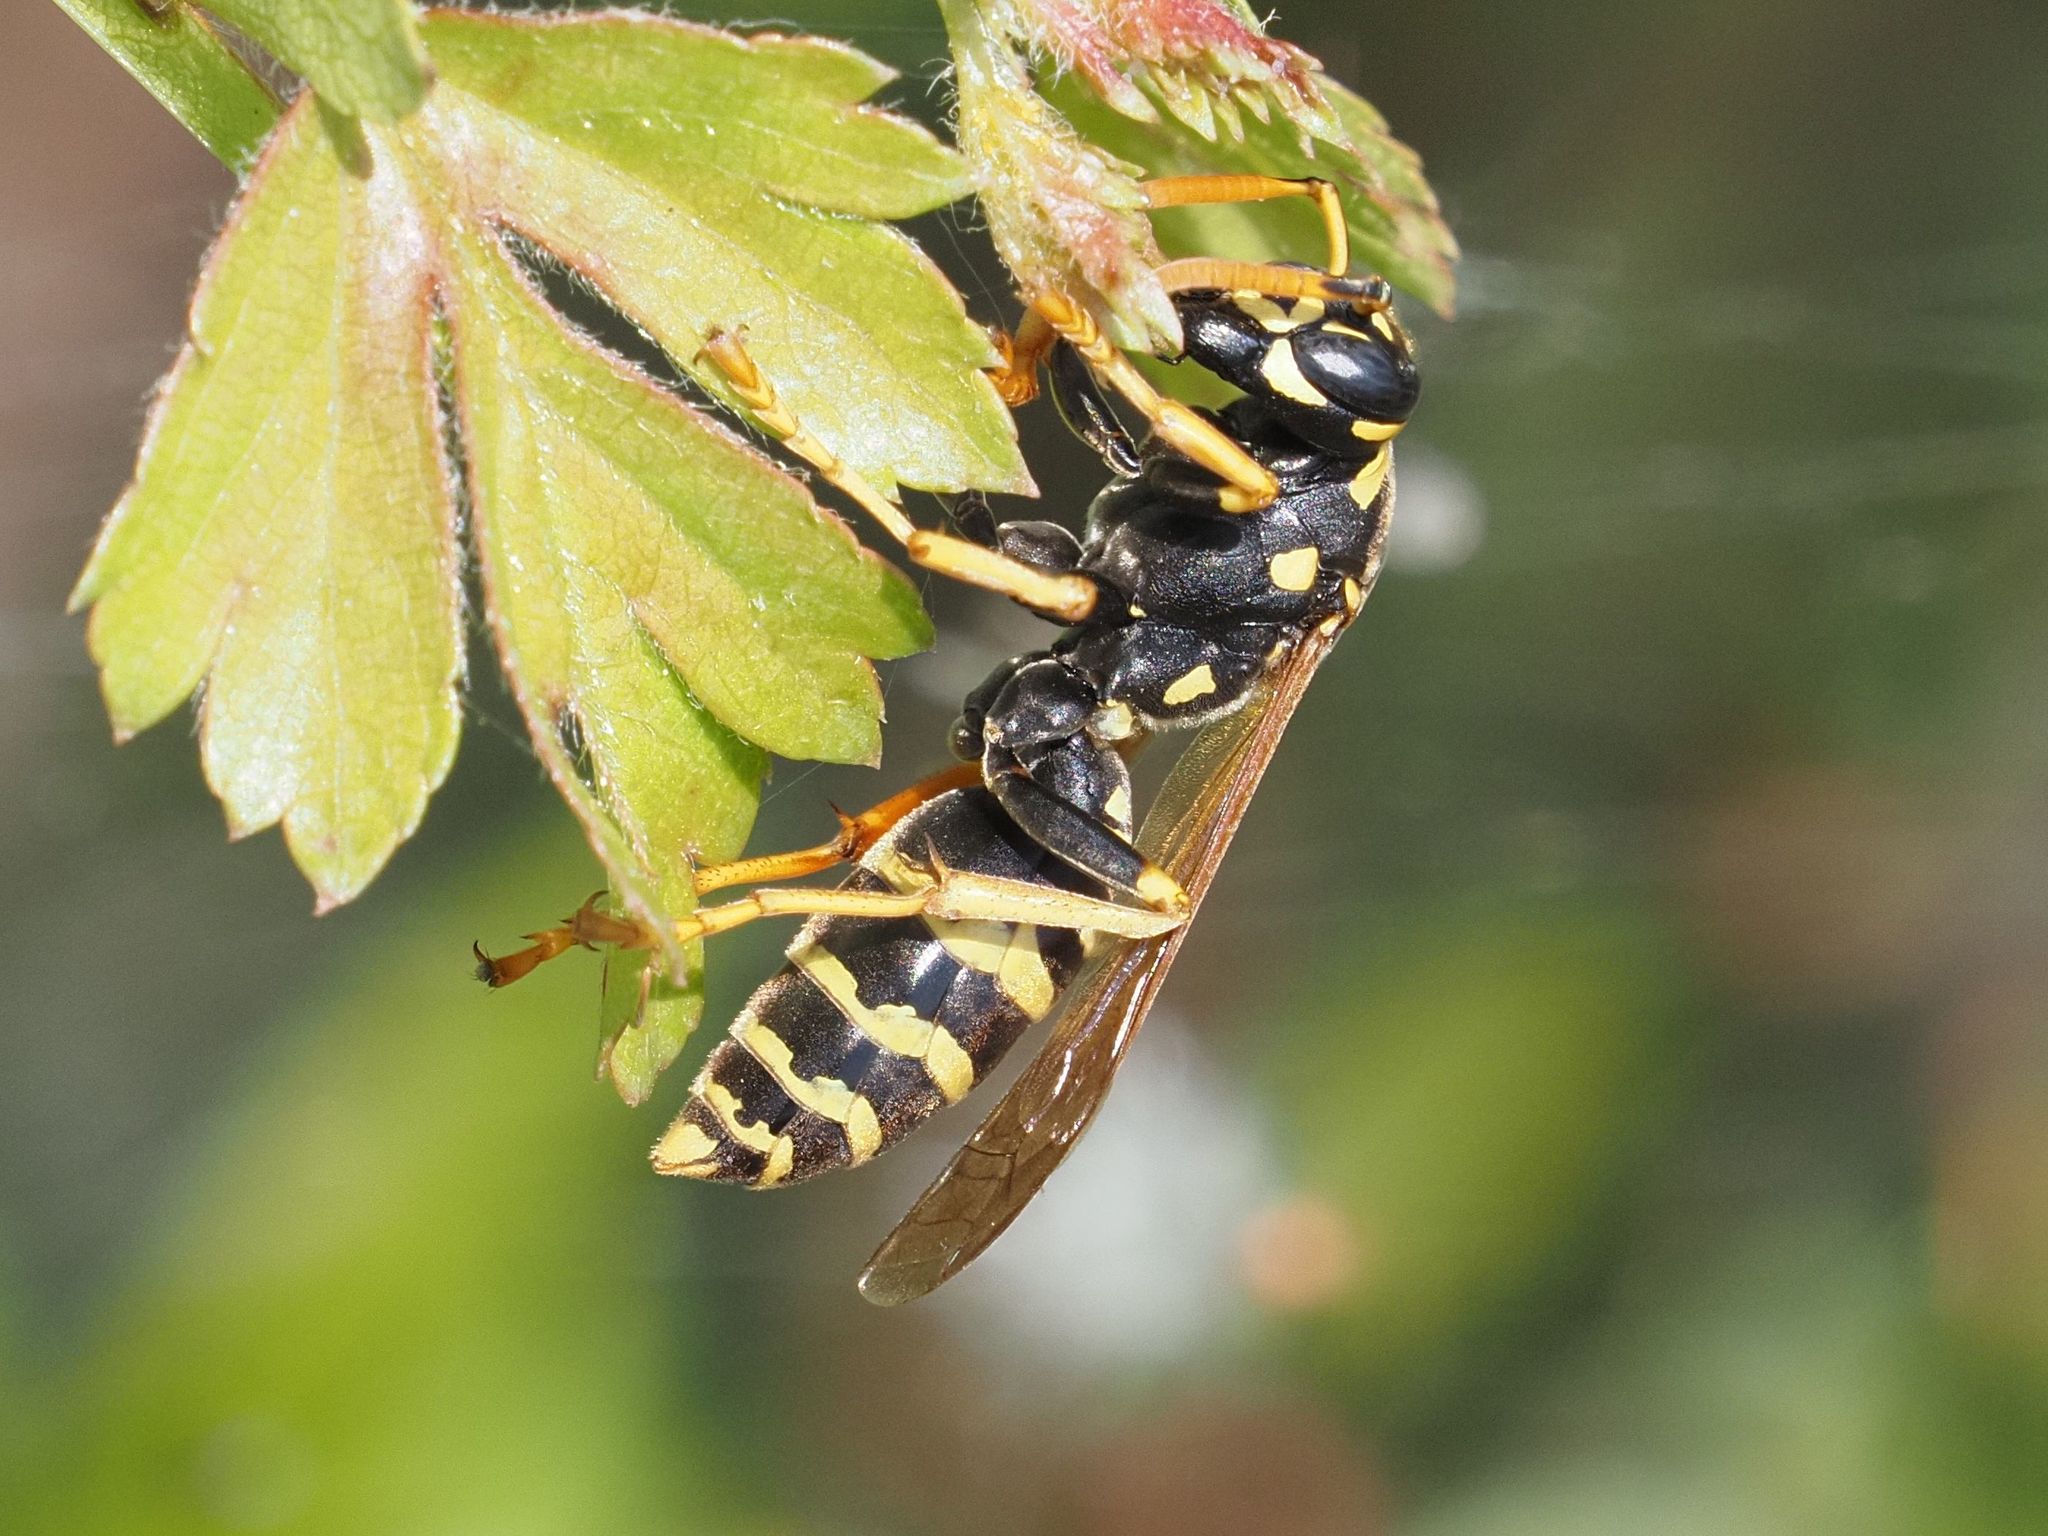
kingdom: Animalia
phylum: Arthropoda
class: Insecta
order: Hymenoptera
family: Eumenidae
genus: Polistes
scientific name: Polistes dominula
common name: Paper wasp
